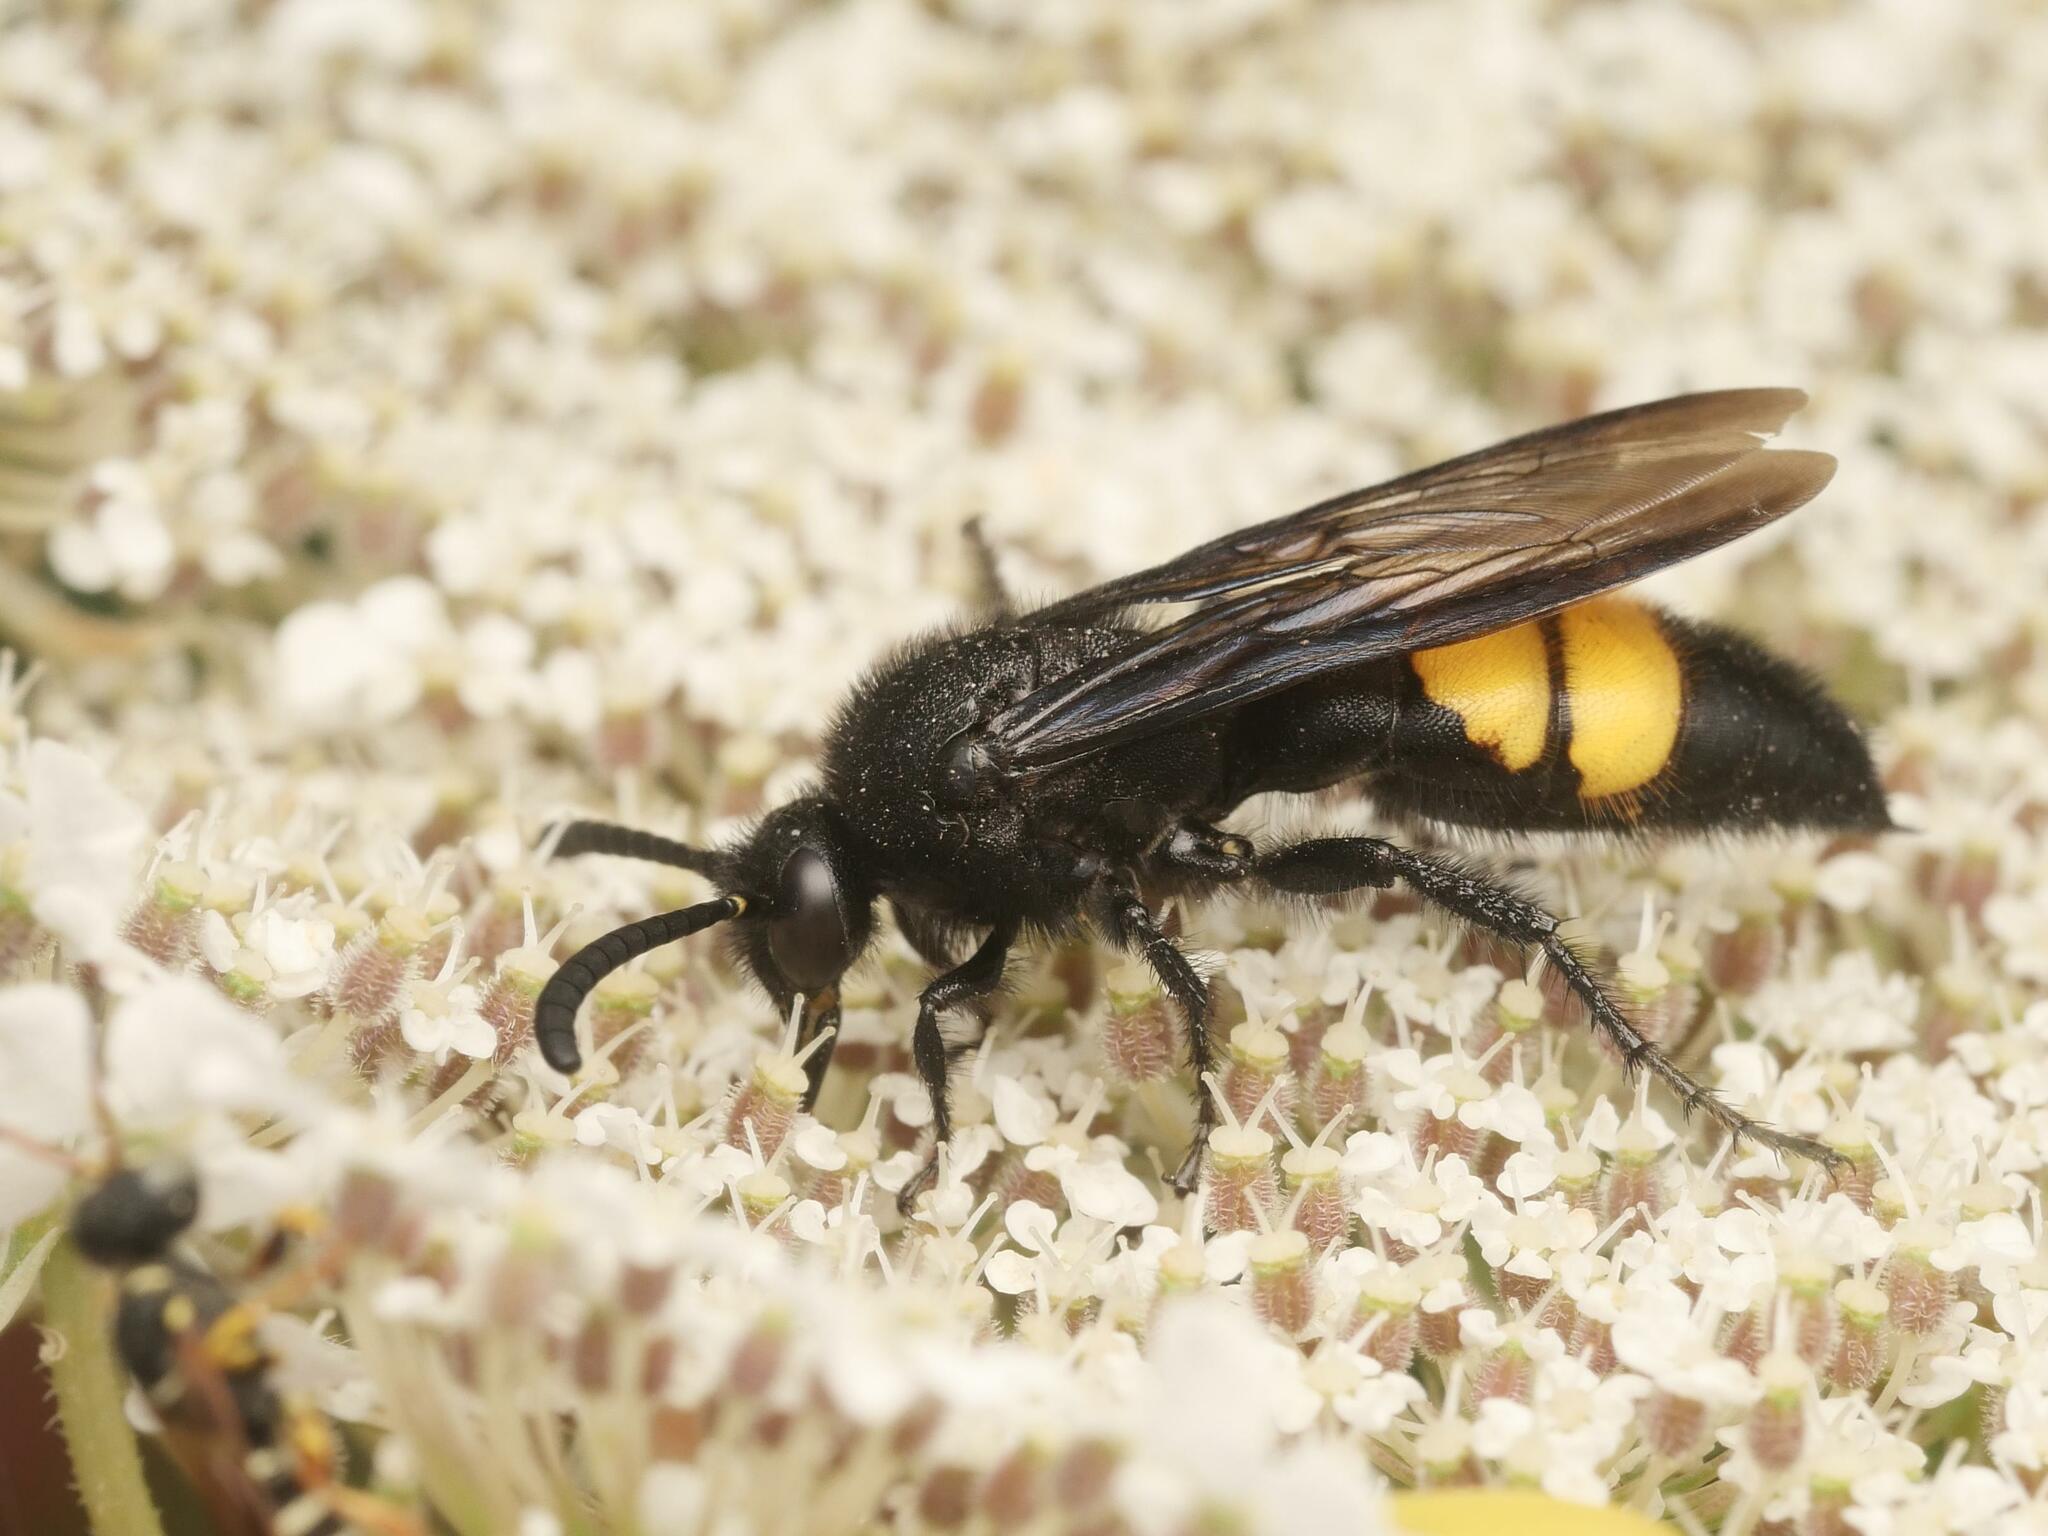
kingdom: Animalia
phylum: Arthropoda
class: Insecta
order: Hymenoptera
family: Scoliidae
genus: Scolia
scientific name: Scolia hirta
